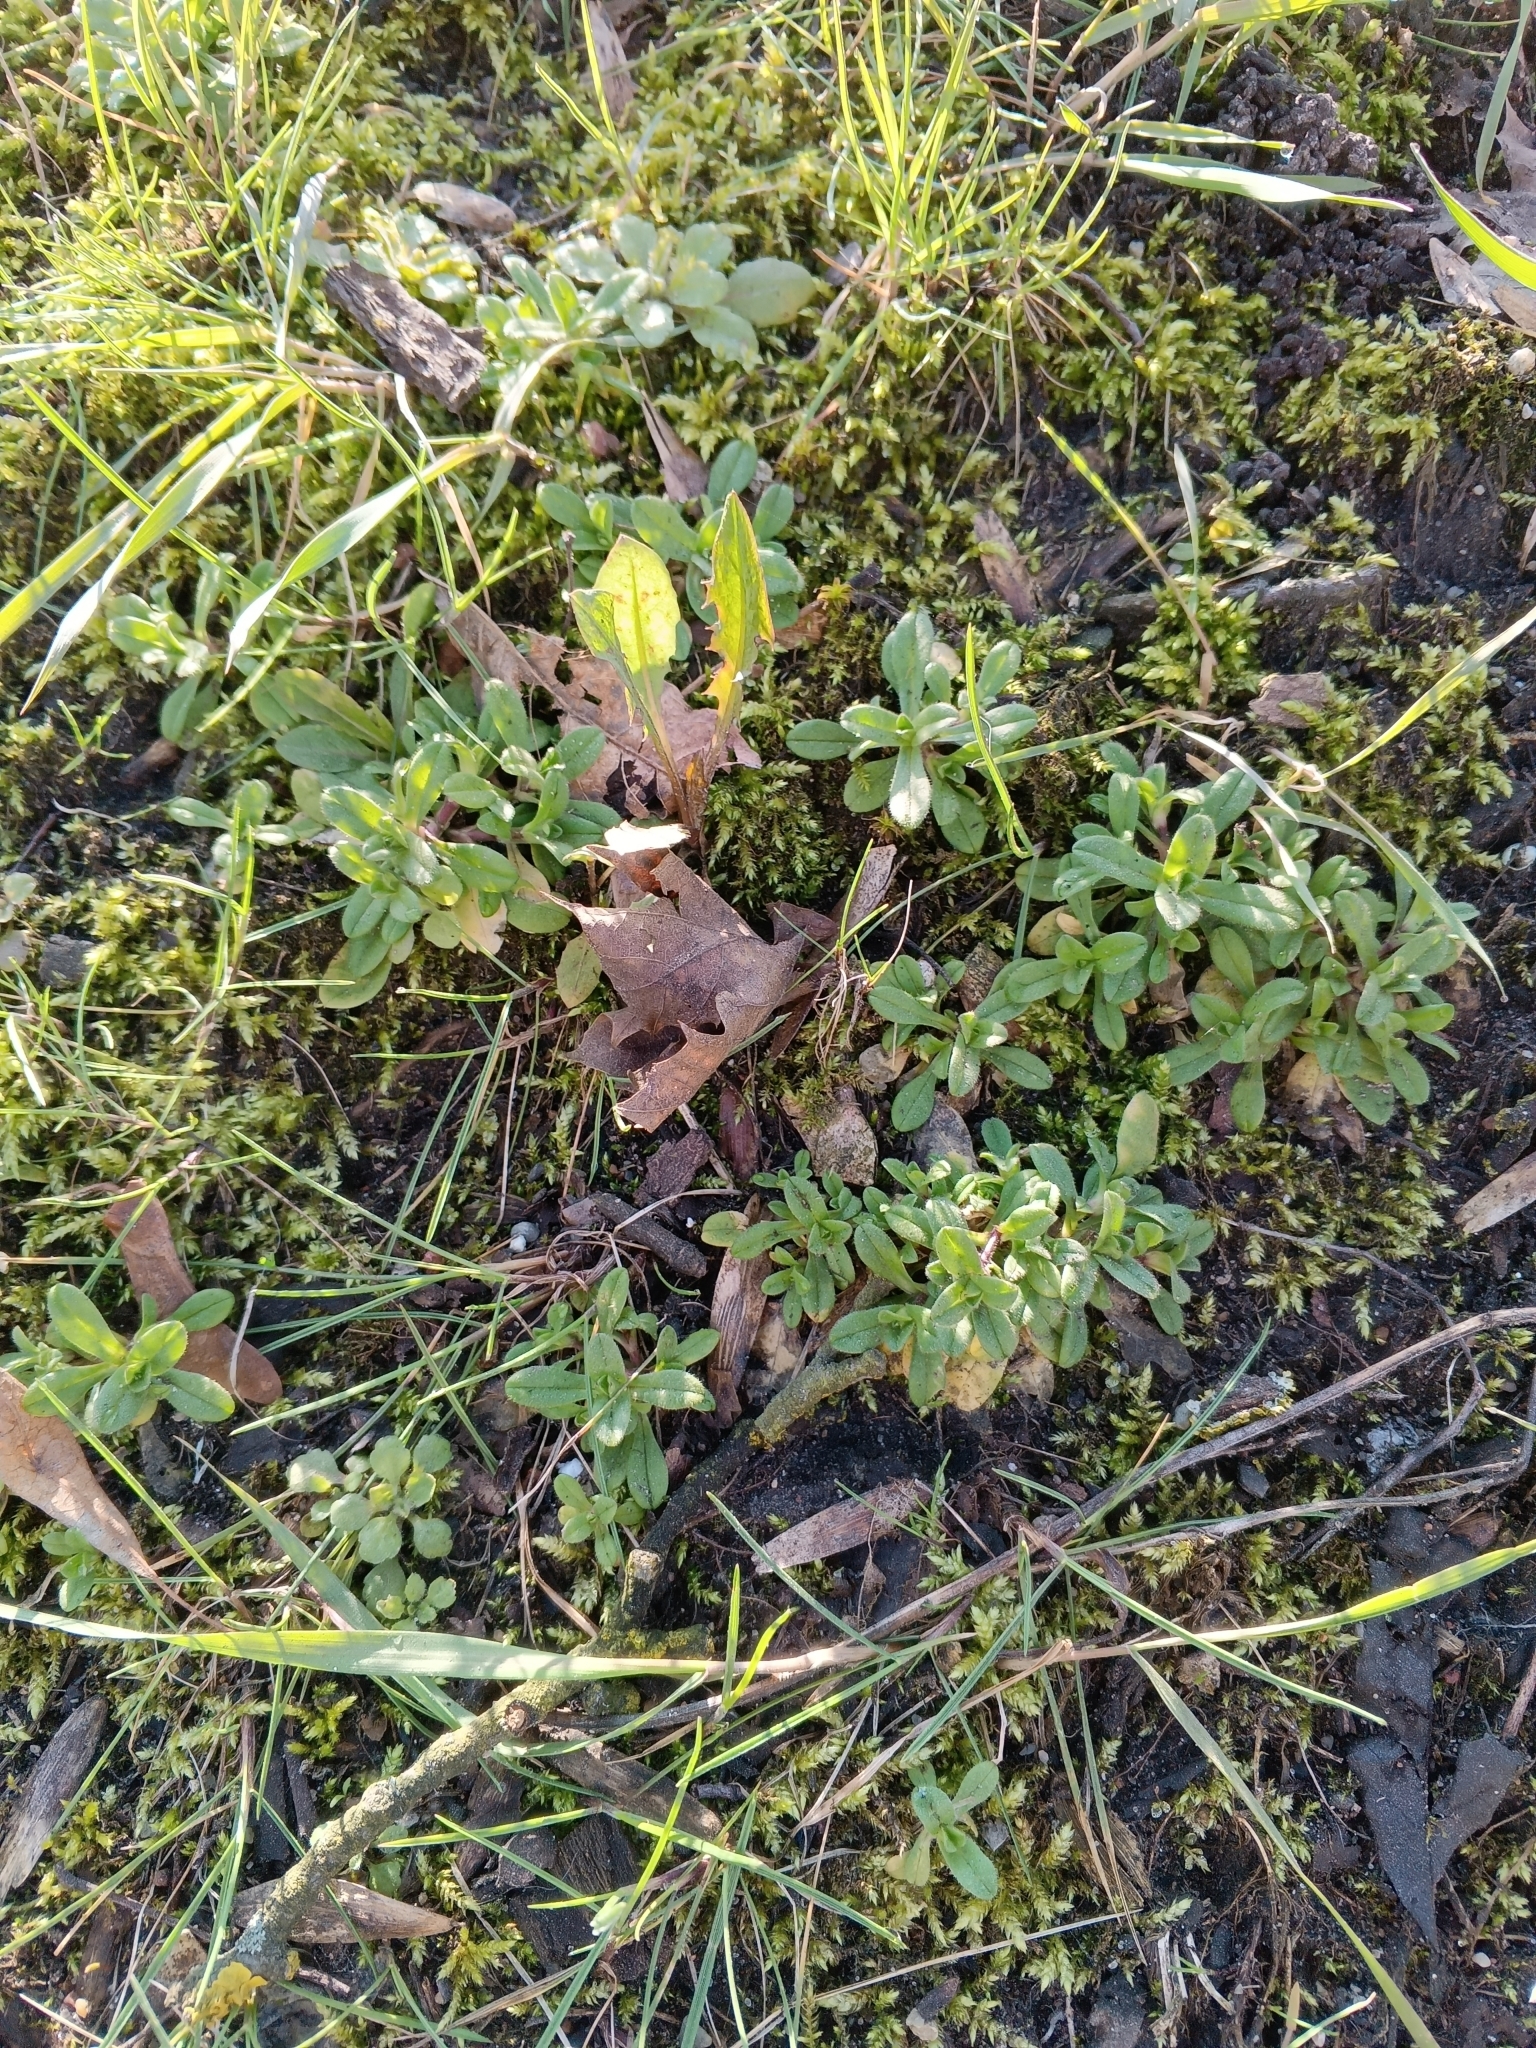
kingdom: Plantae
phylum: Tracheophyta
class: Magnoliopsida
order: Caryophyllales
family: Caryophyllaceae
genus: Cerastium
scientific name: Cerastium holosteoides
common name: Big chickweed
